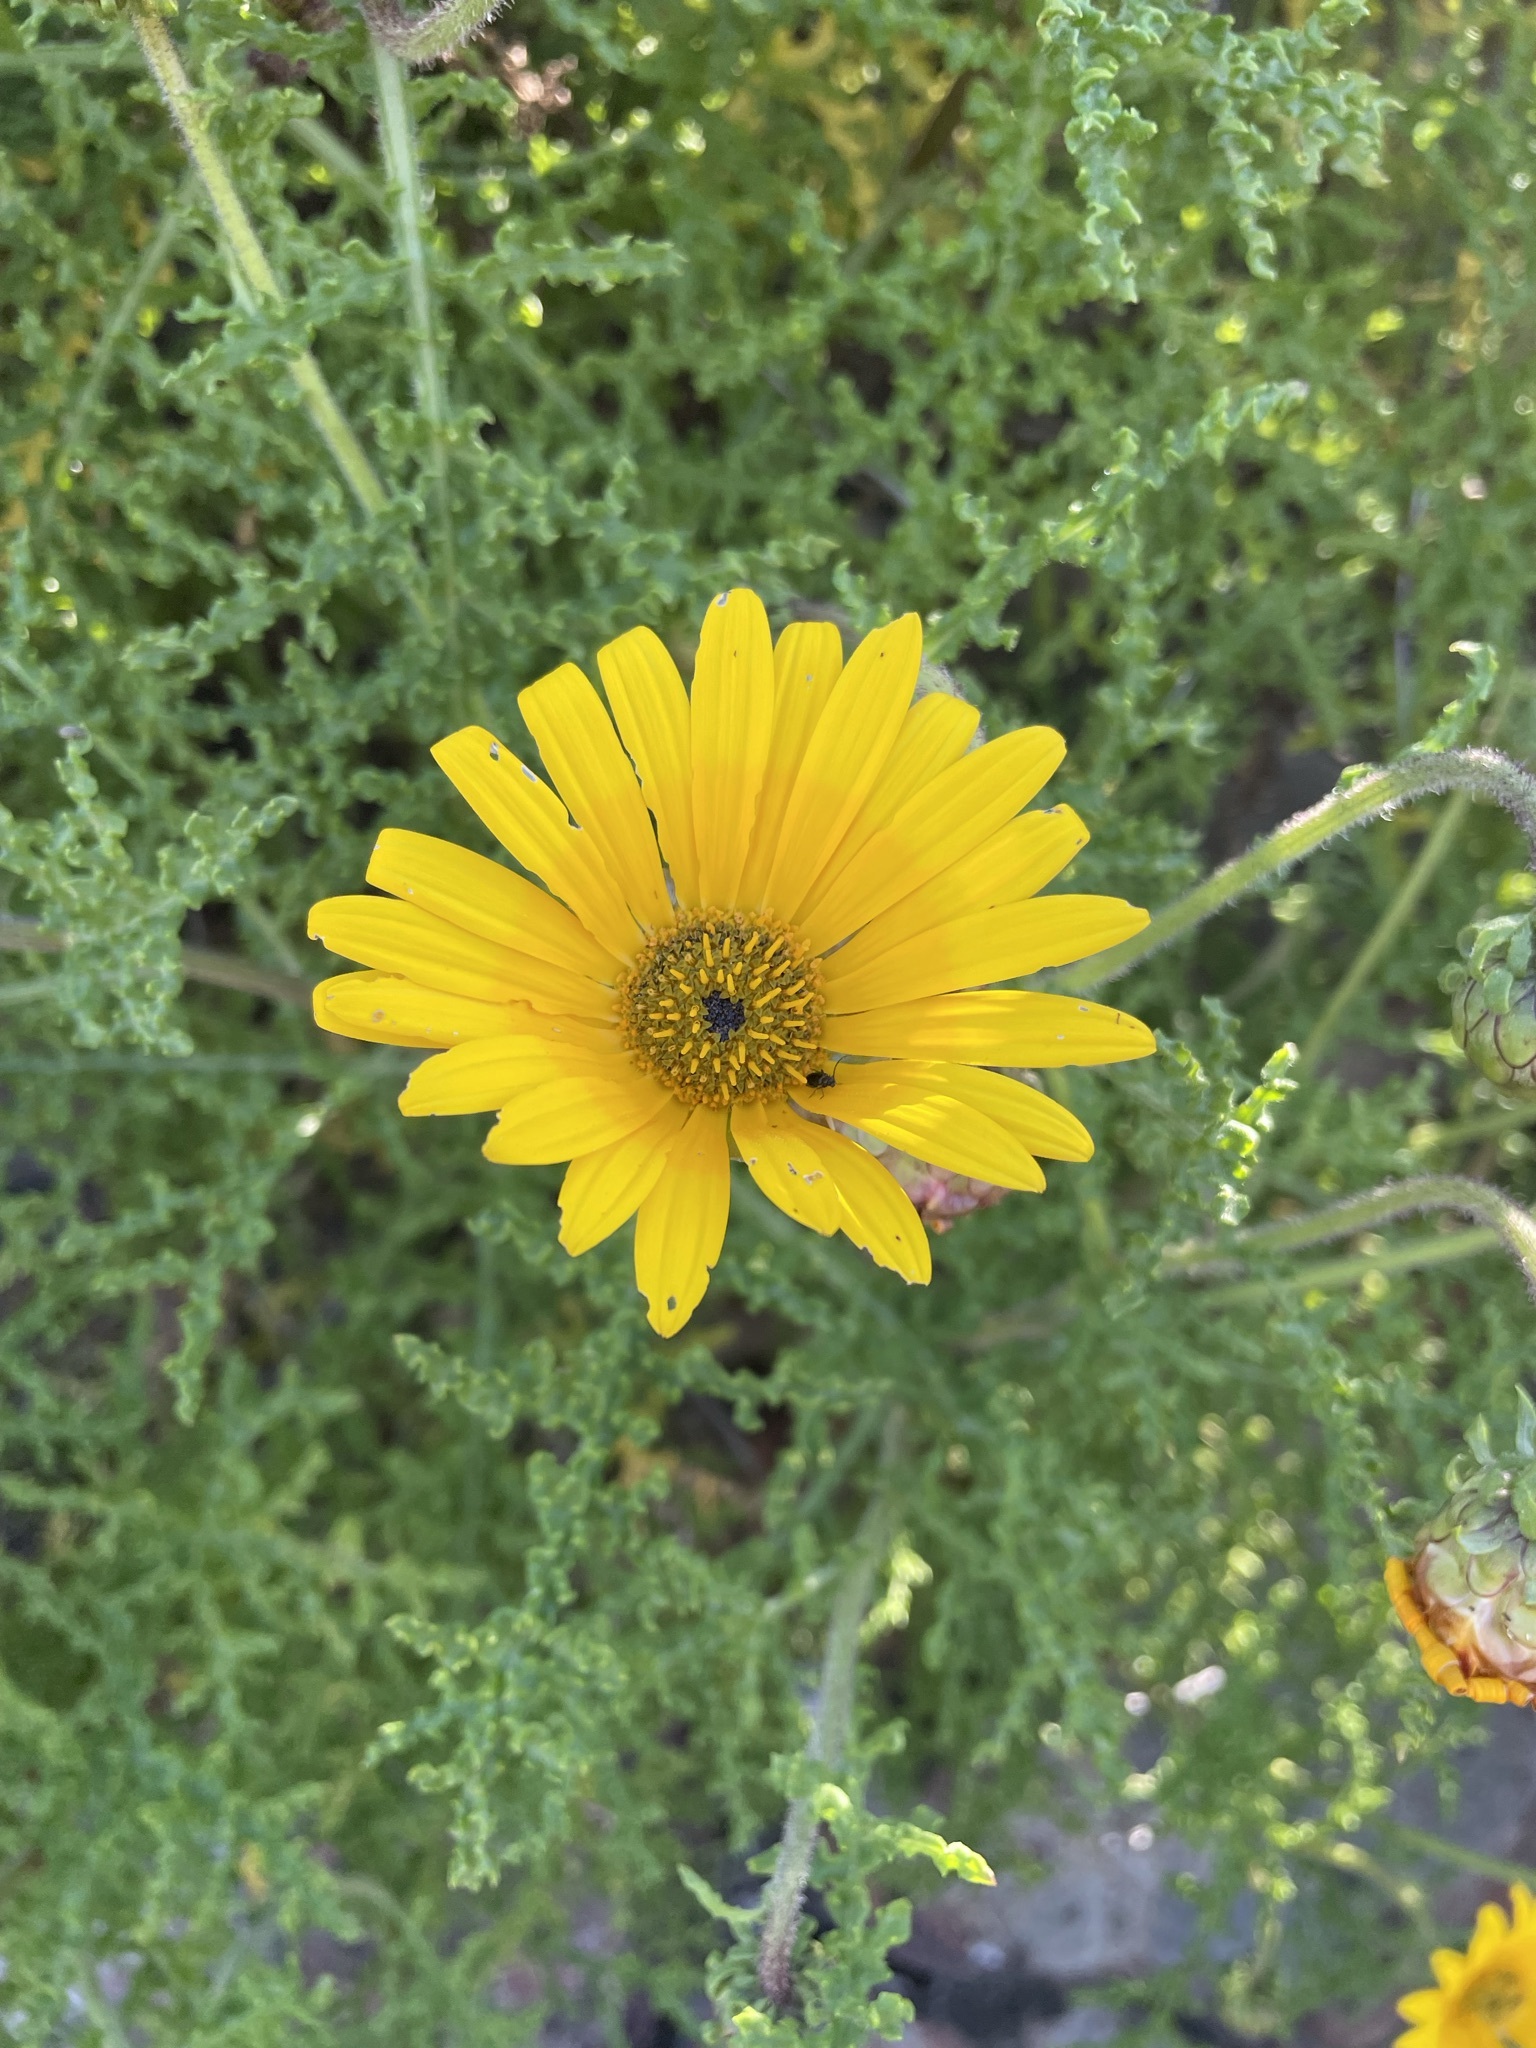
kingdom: Plantae
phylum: Tracheophyta
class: Magnoliopsida
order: Asterales
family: Asteraceae
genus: Arctotis
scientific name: Arctotis laciniata
